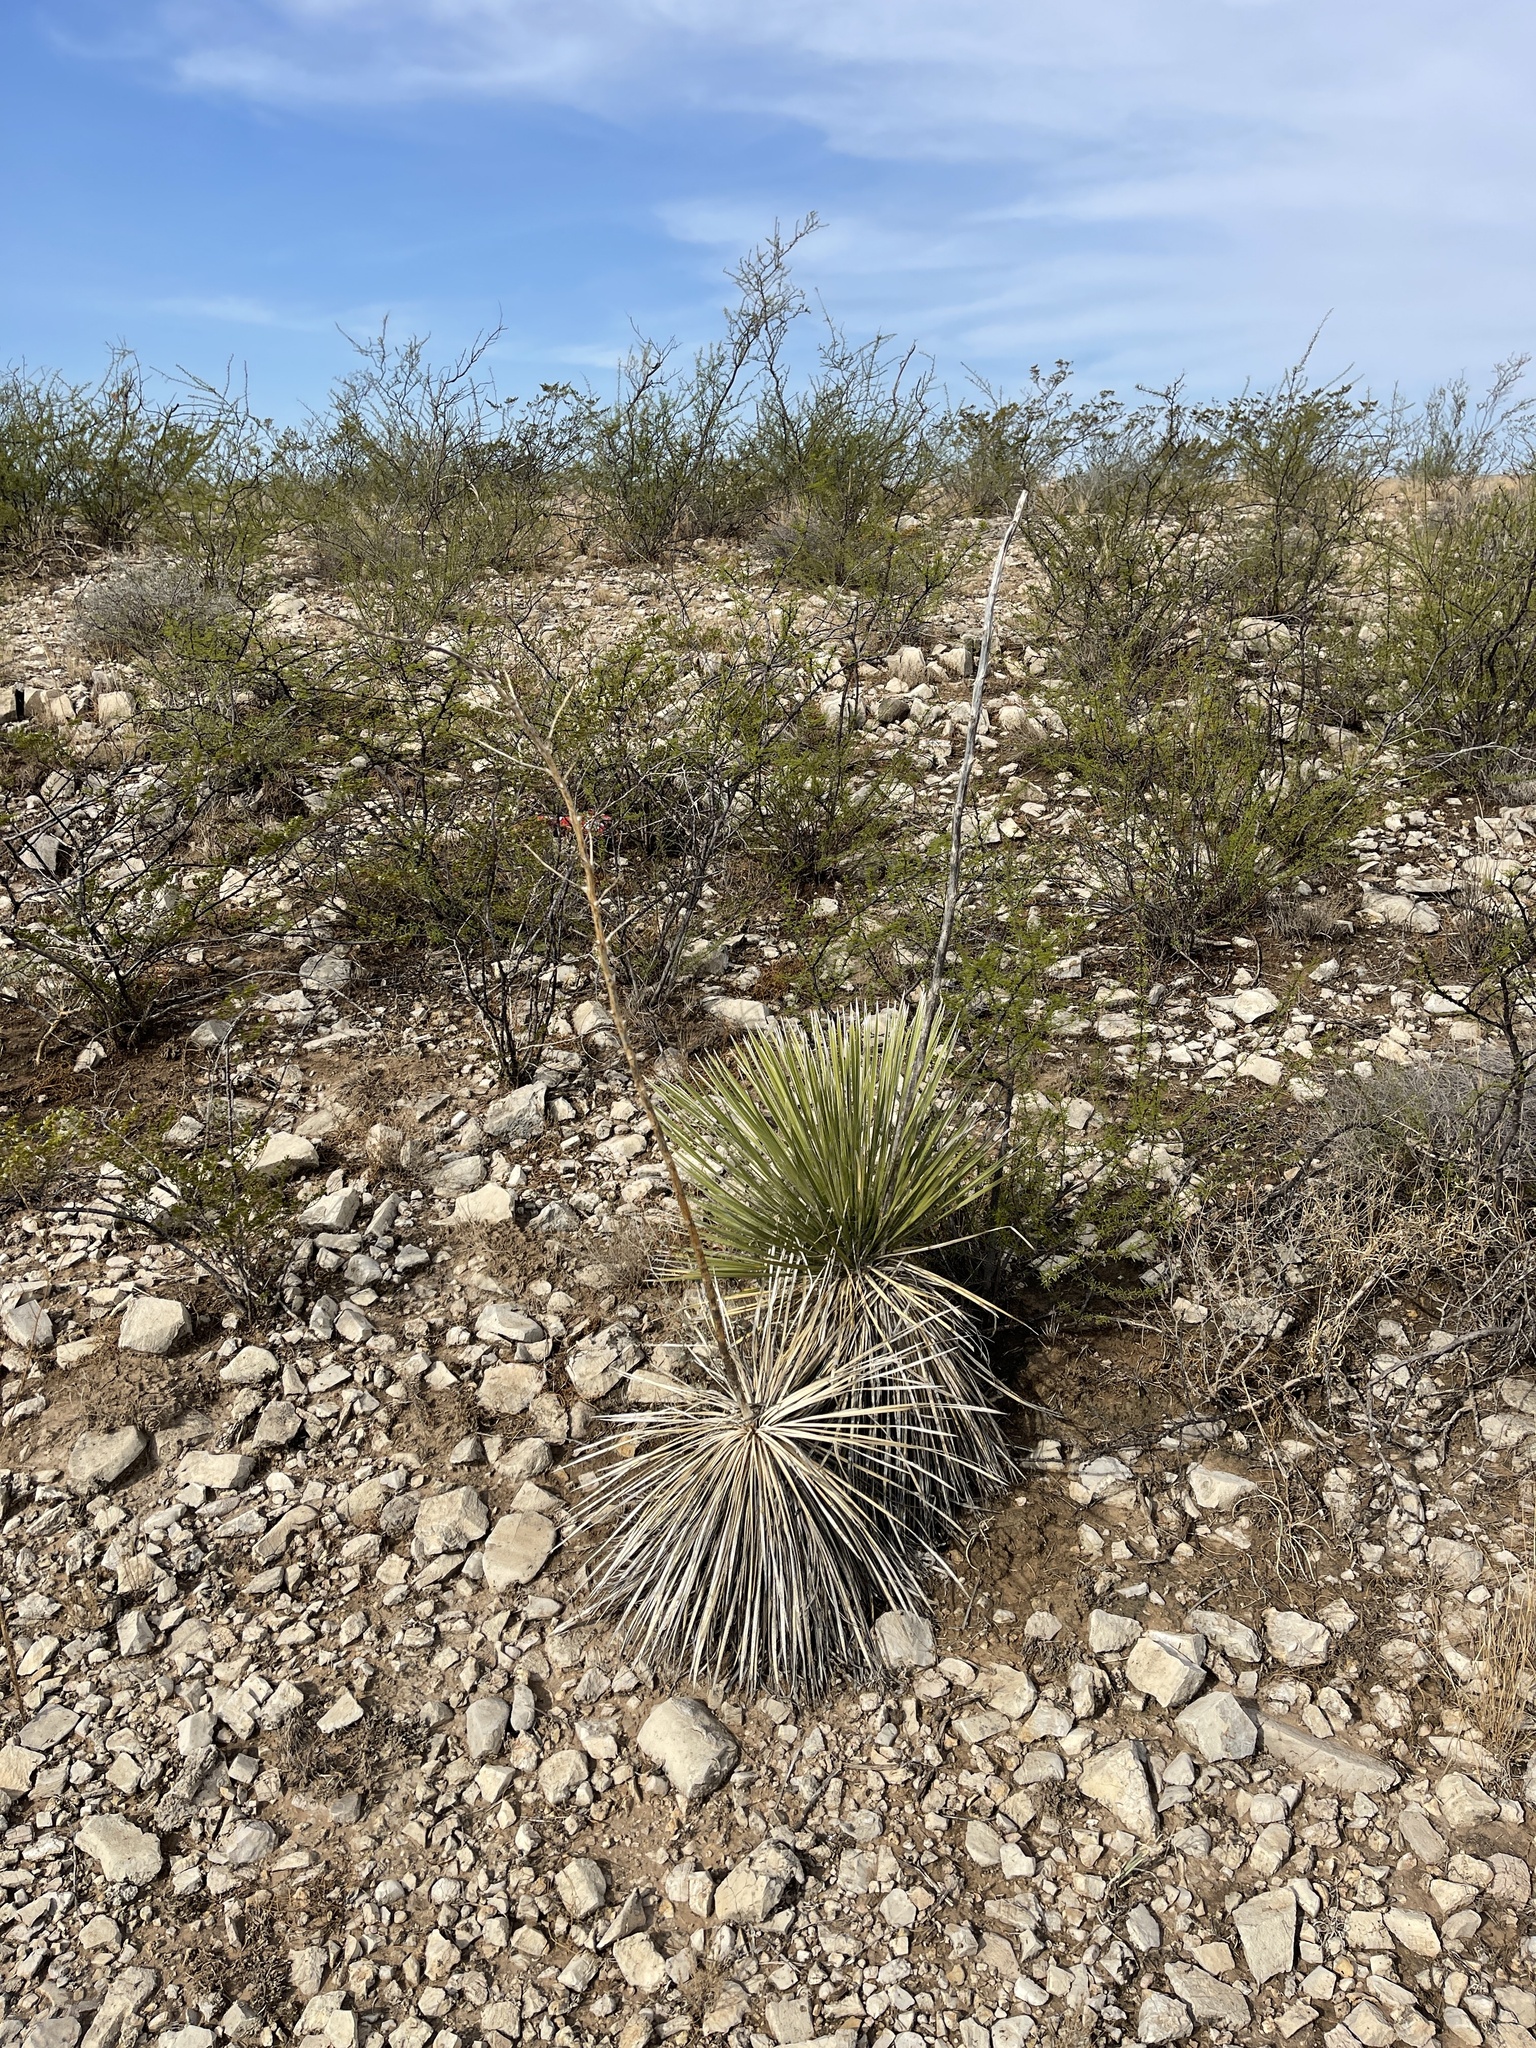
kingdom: Plantae
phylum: Tracheophyta
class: Liliopsida
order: Asparagales
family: Asparagaceae
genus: Yucca
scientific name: Yucca elata
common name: Palmella
